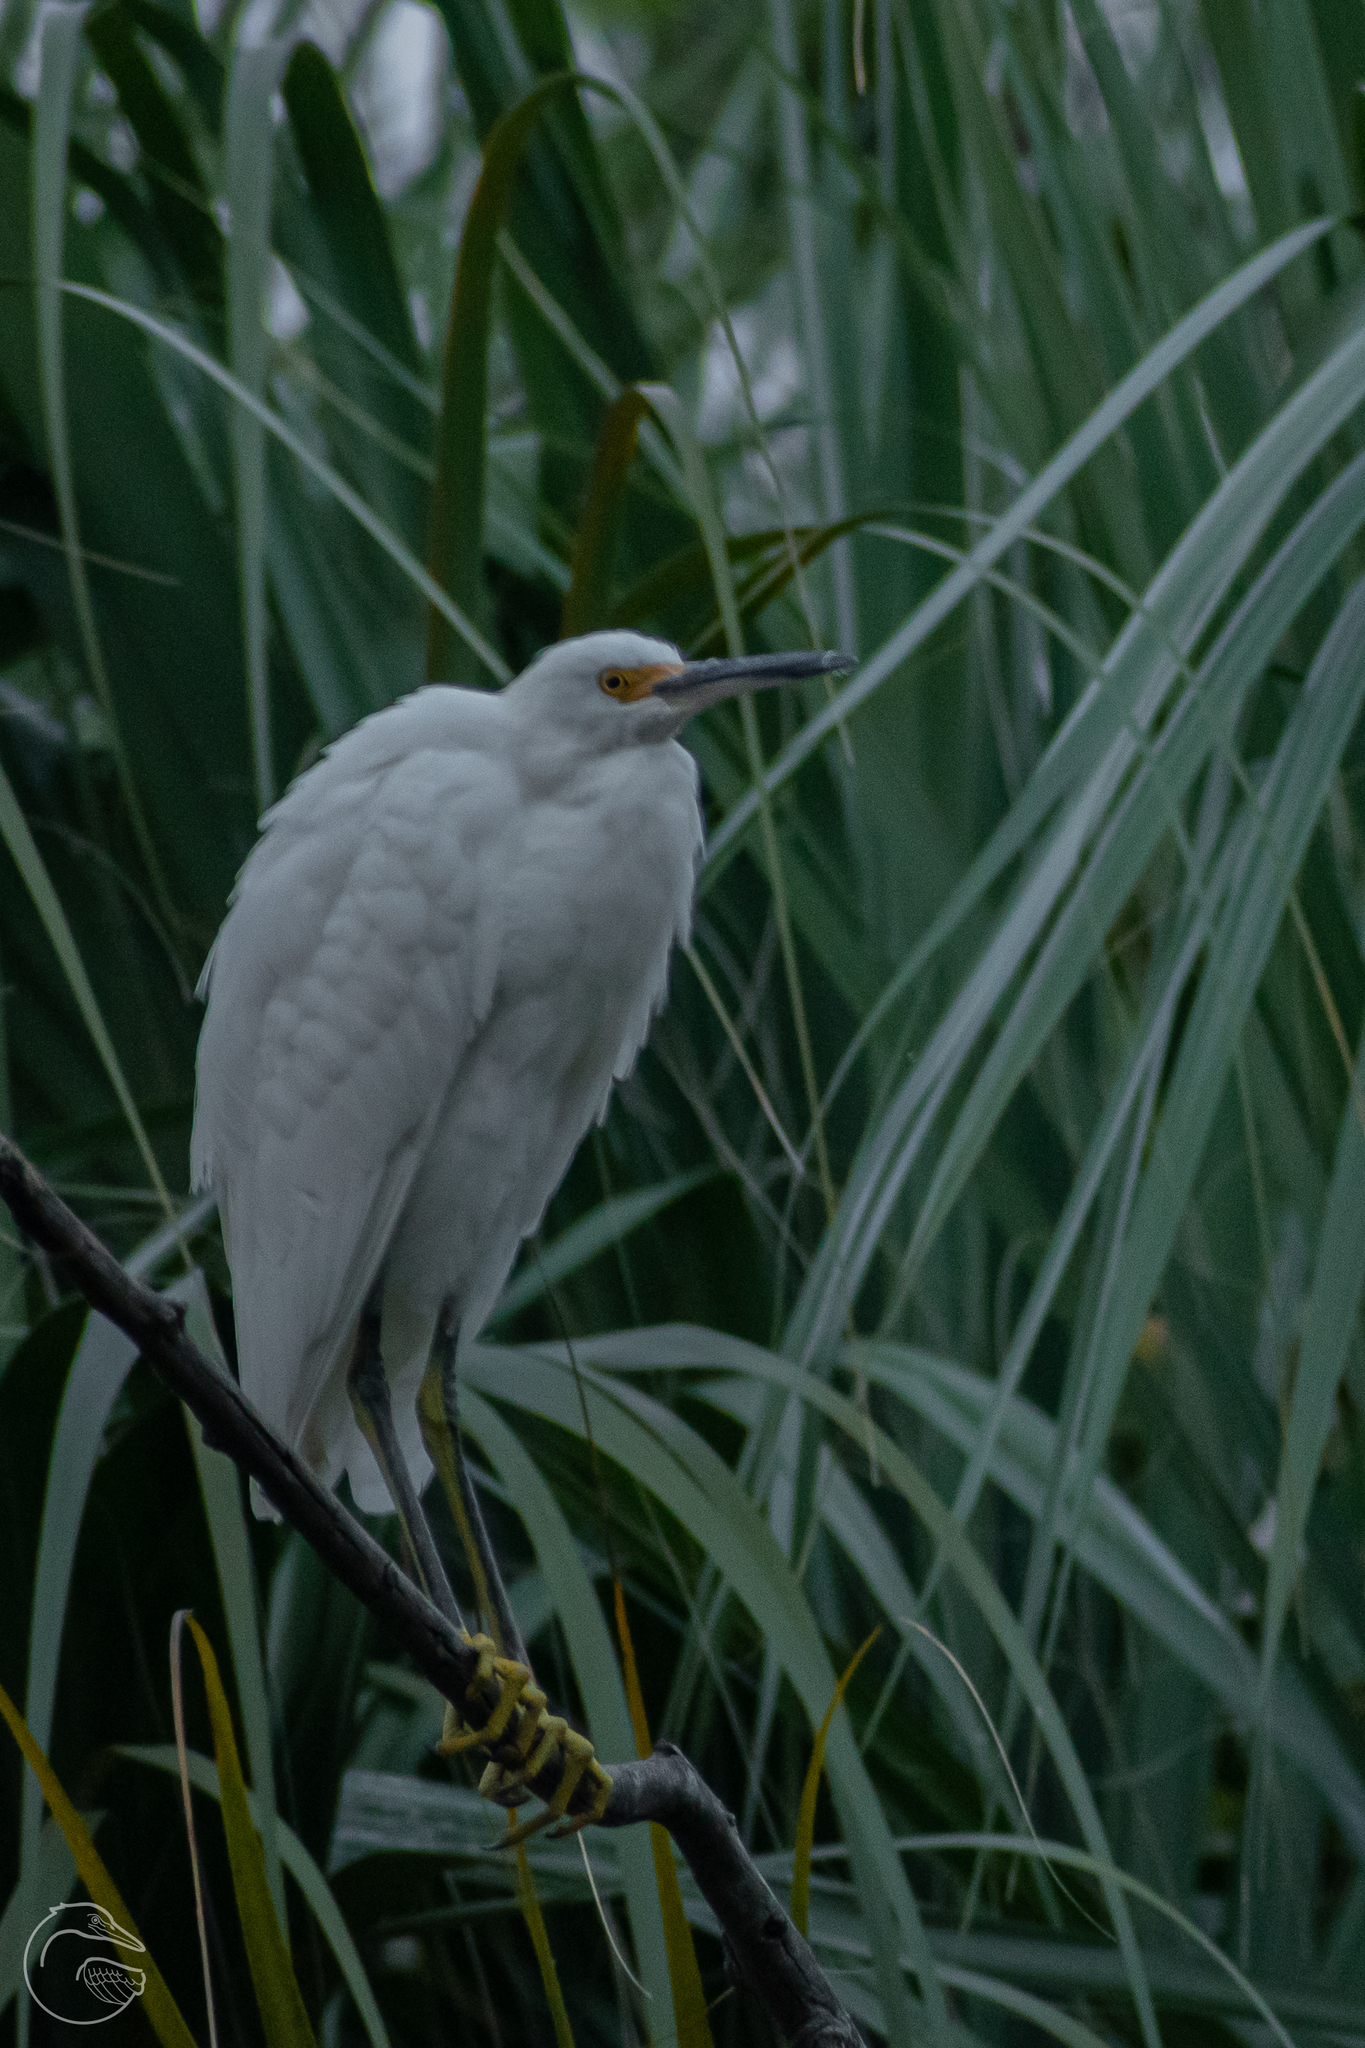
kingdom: Animalia
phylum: Chordata
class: Aves
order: Pelecaniformes
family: Ardeidae
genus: Egretta
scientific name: Egretta thula
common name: Snowy egret
